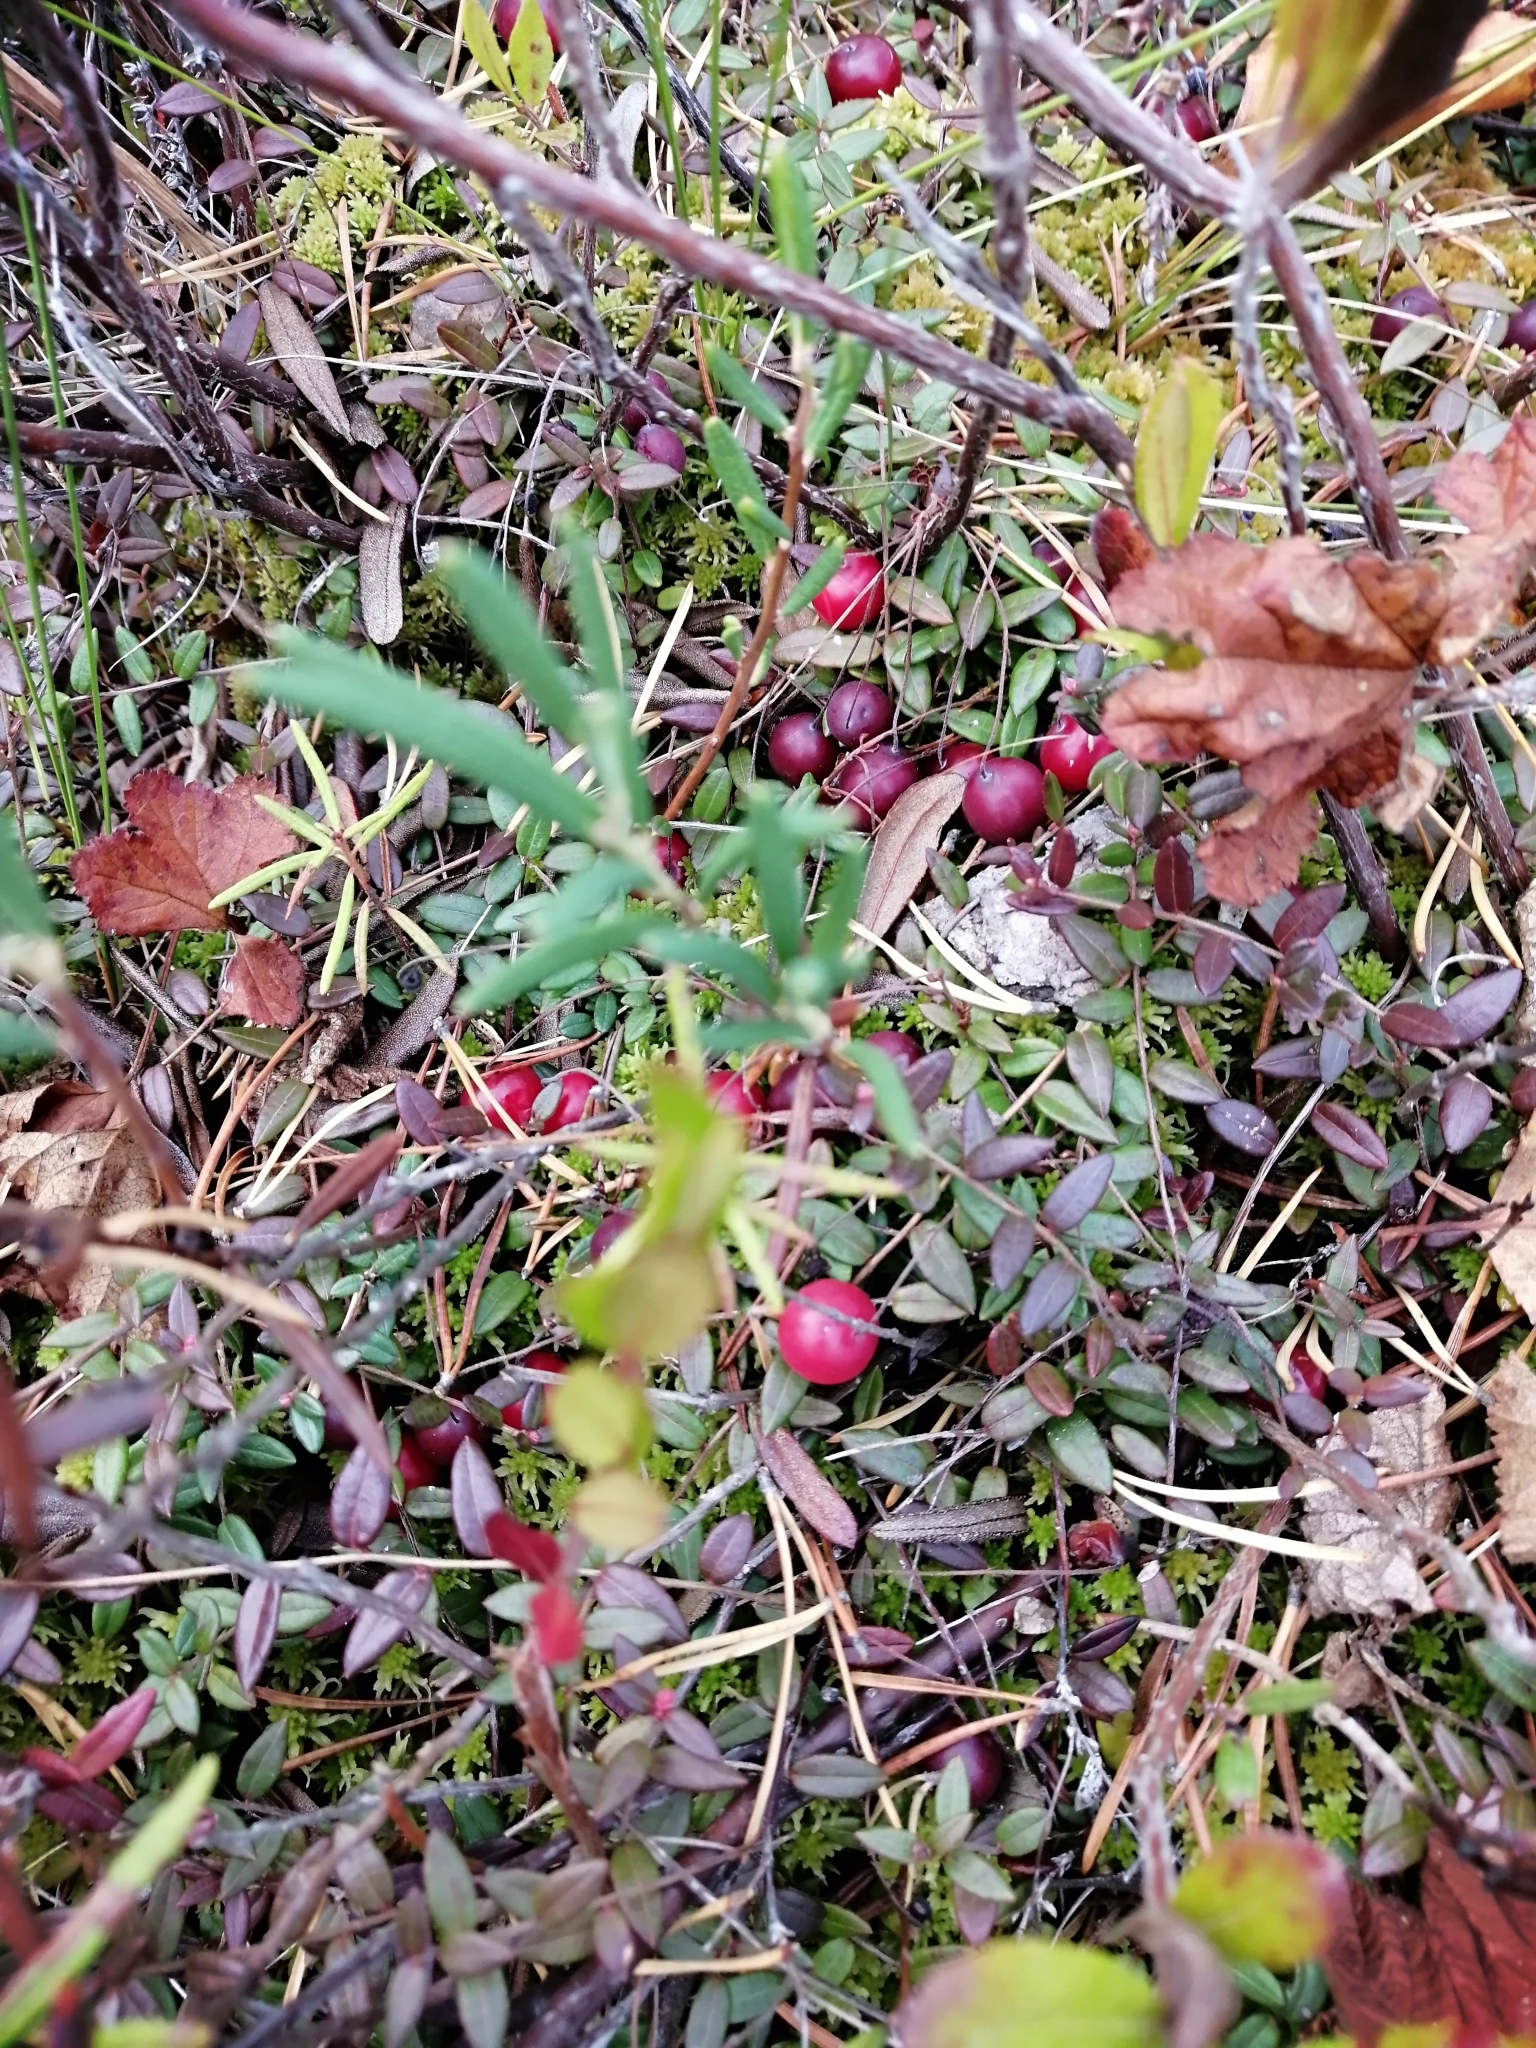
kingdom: Plantae
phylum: Tracheophyta
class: Magnoliopsida
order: Ericales
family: Ericaceae
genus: Vaccinium
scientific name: Vaccinium oxycoccos
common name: Cranberry
